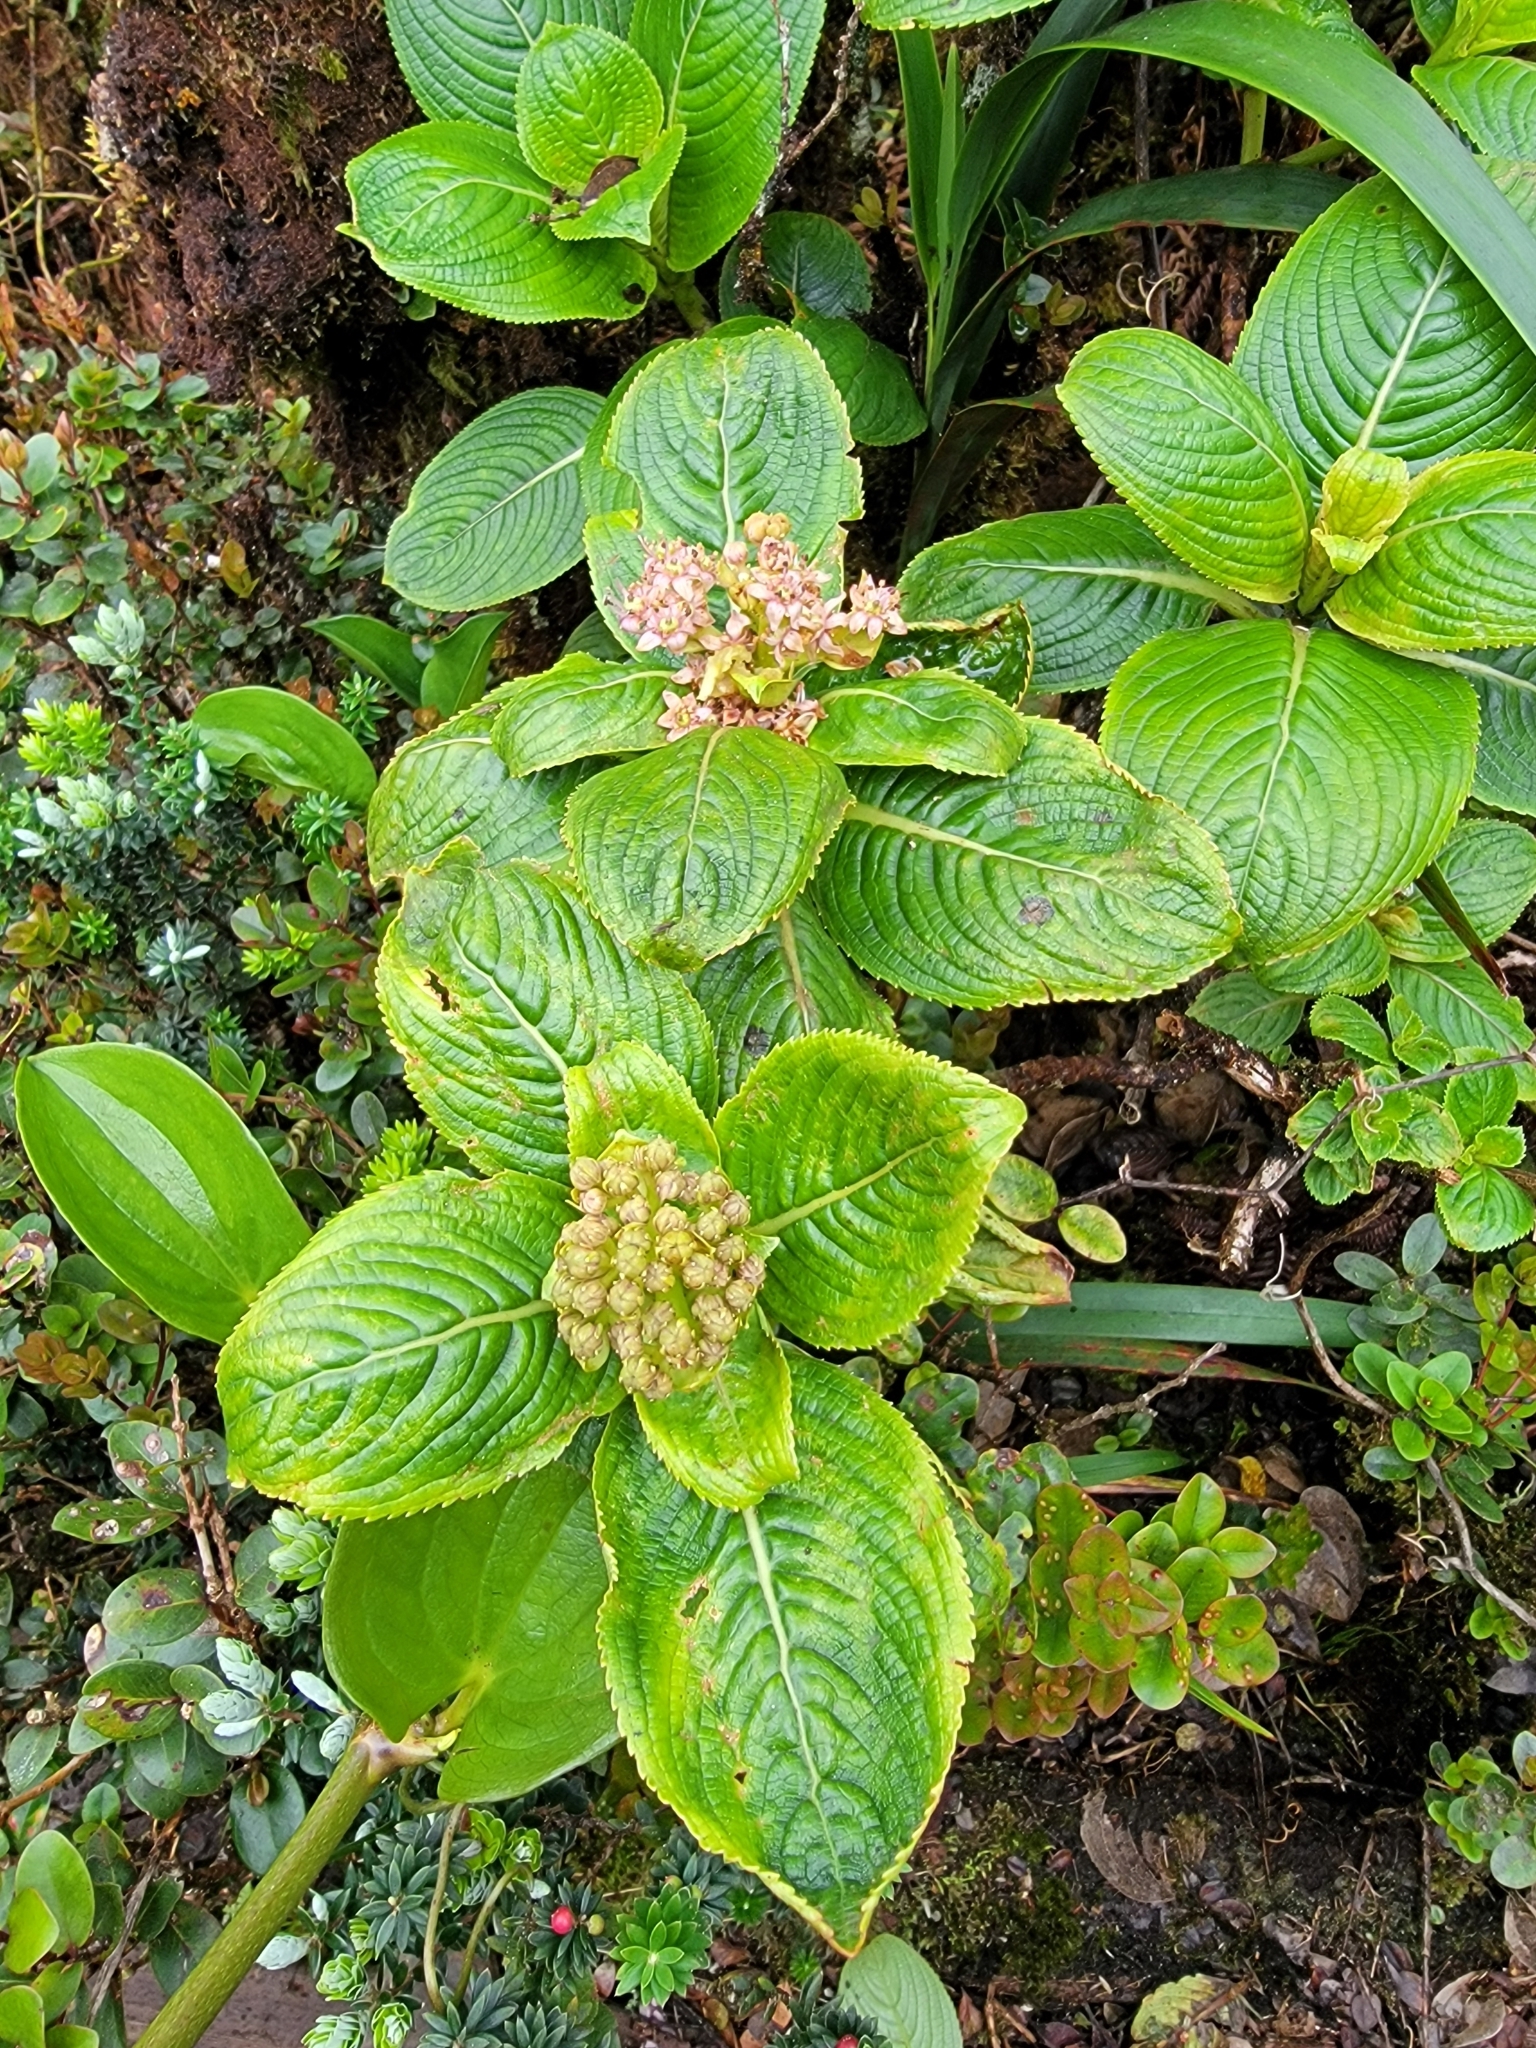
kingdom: Plantae
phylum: Tracheophyta
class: Magnoliopsida
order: Cornales
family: Hydrangeaceae
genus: Hydrangea
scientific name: Hydrangea arguta
